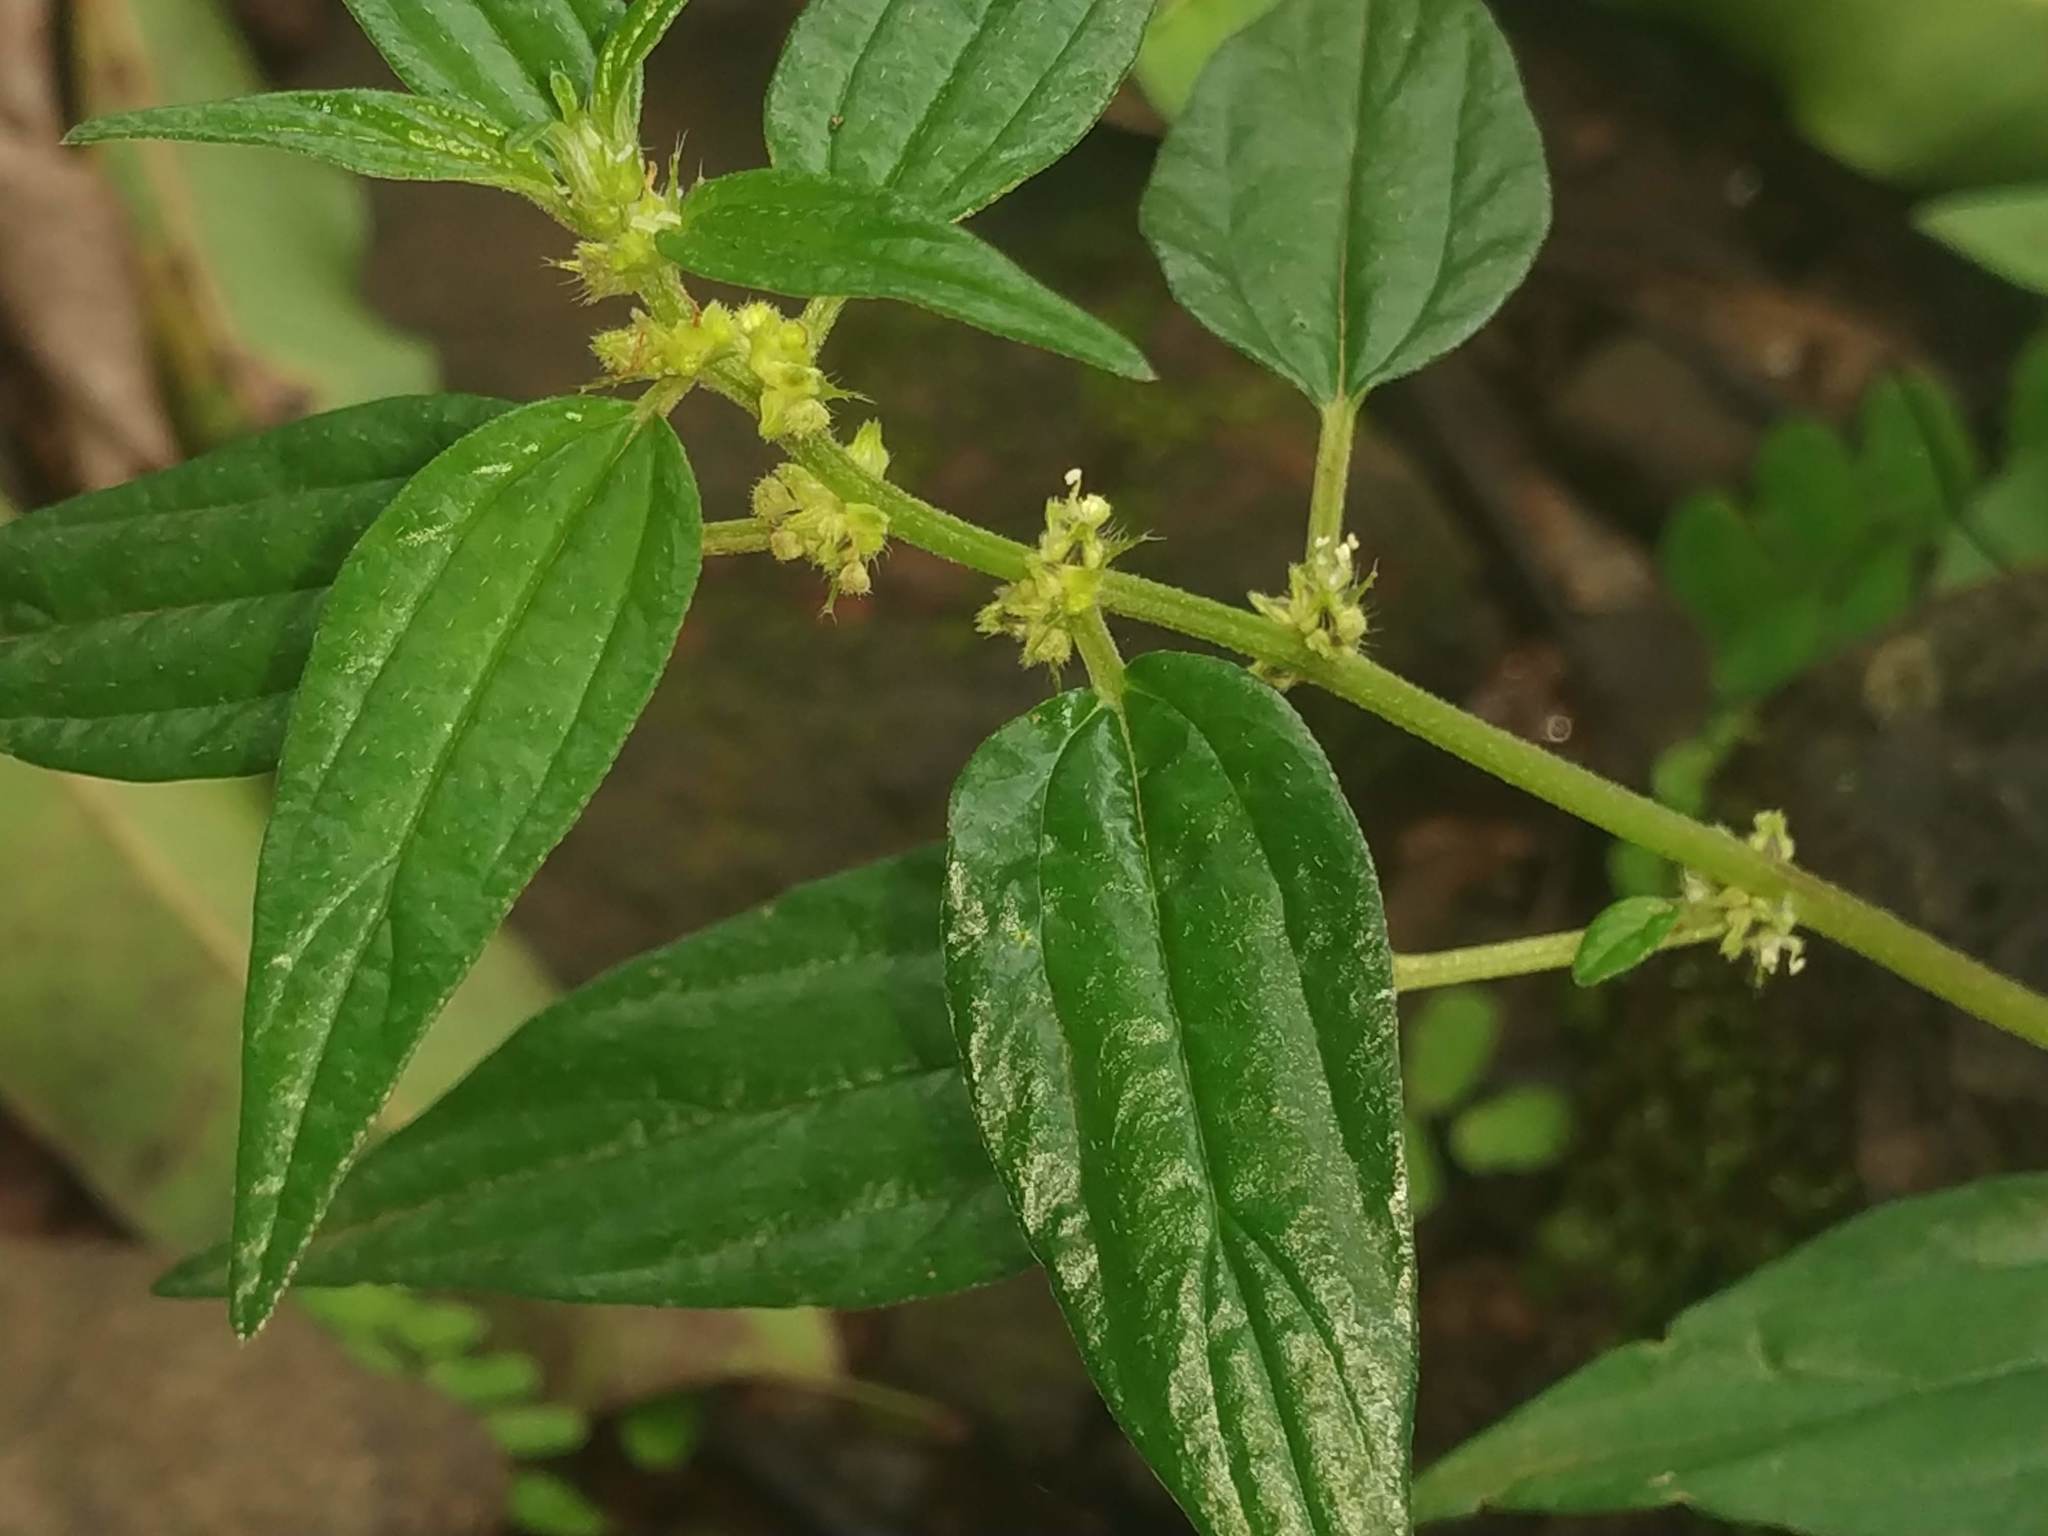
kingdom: Plantae
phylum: Tracheophyta
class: Magnoliopsida
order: Rosales
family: Urticaceae
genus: Pouzolzia
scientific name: Pouzolzia zeylanica
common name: Graceful pouzolzsbush
